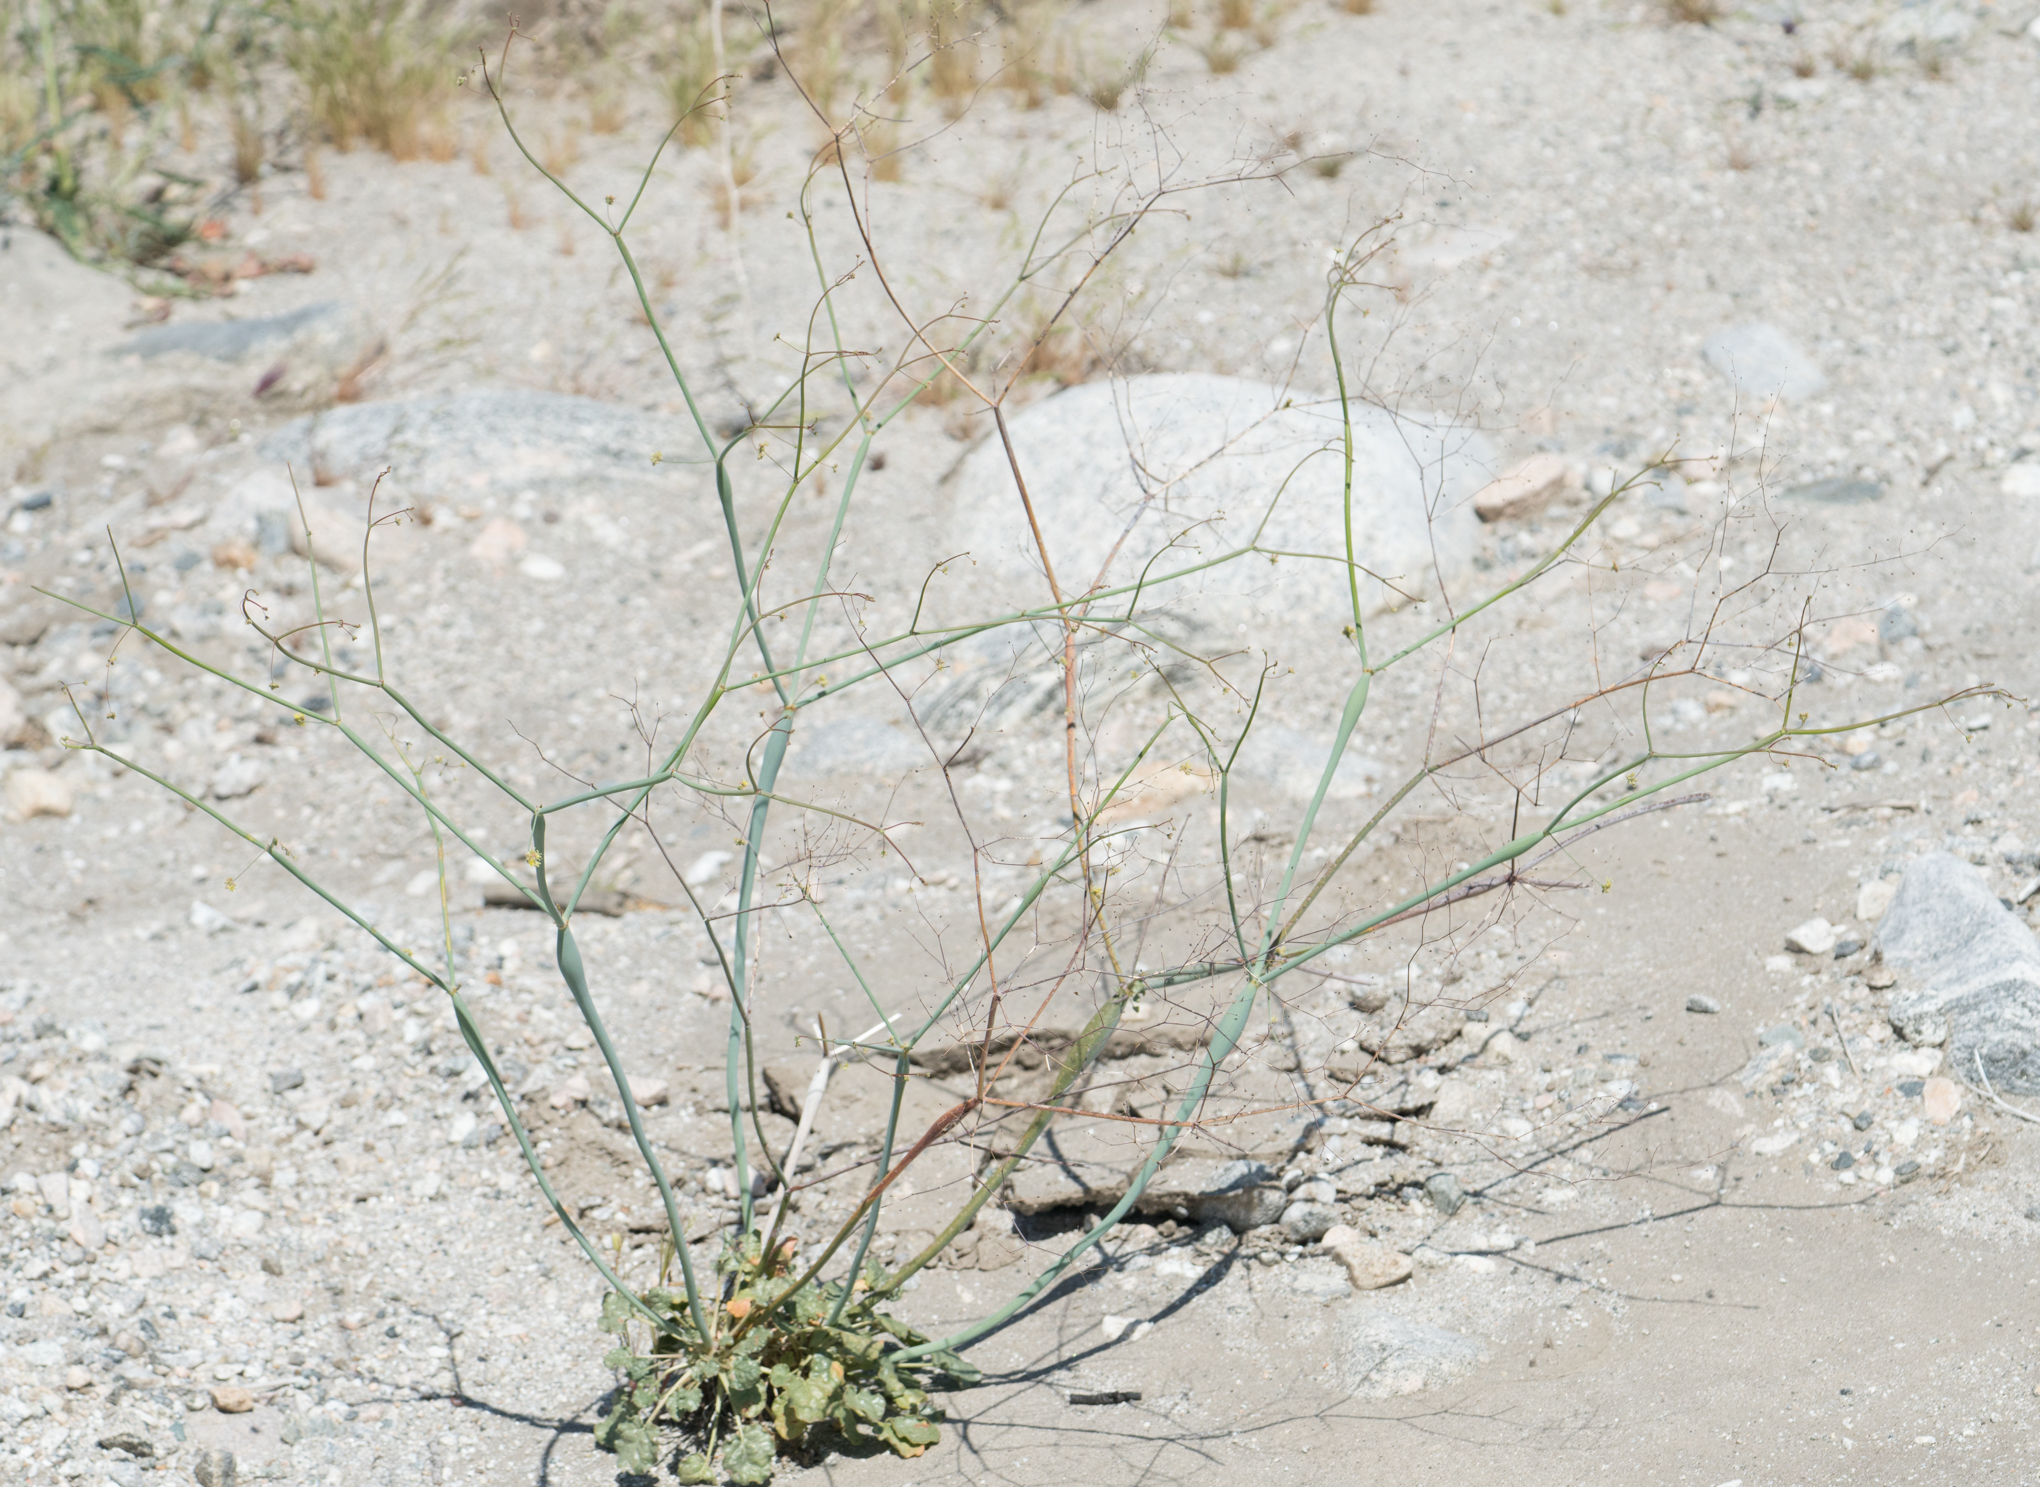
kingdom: Plantae
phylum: Tracheophyta
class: Magnoliopsida
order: Caryophyllales
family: Polygonaceae
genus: Eriogonum
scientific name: Eriogonum inflatum
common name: Desert trumpet
